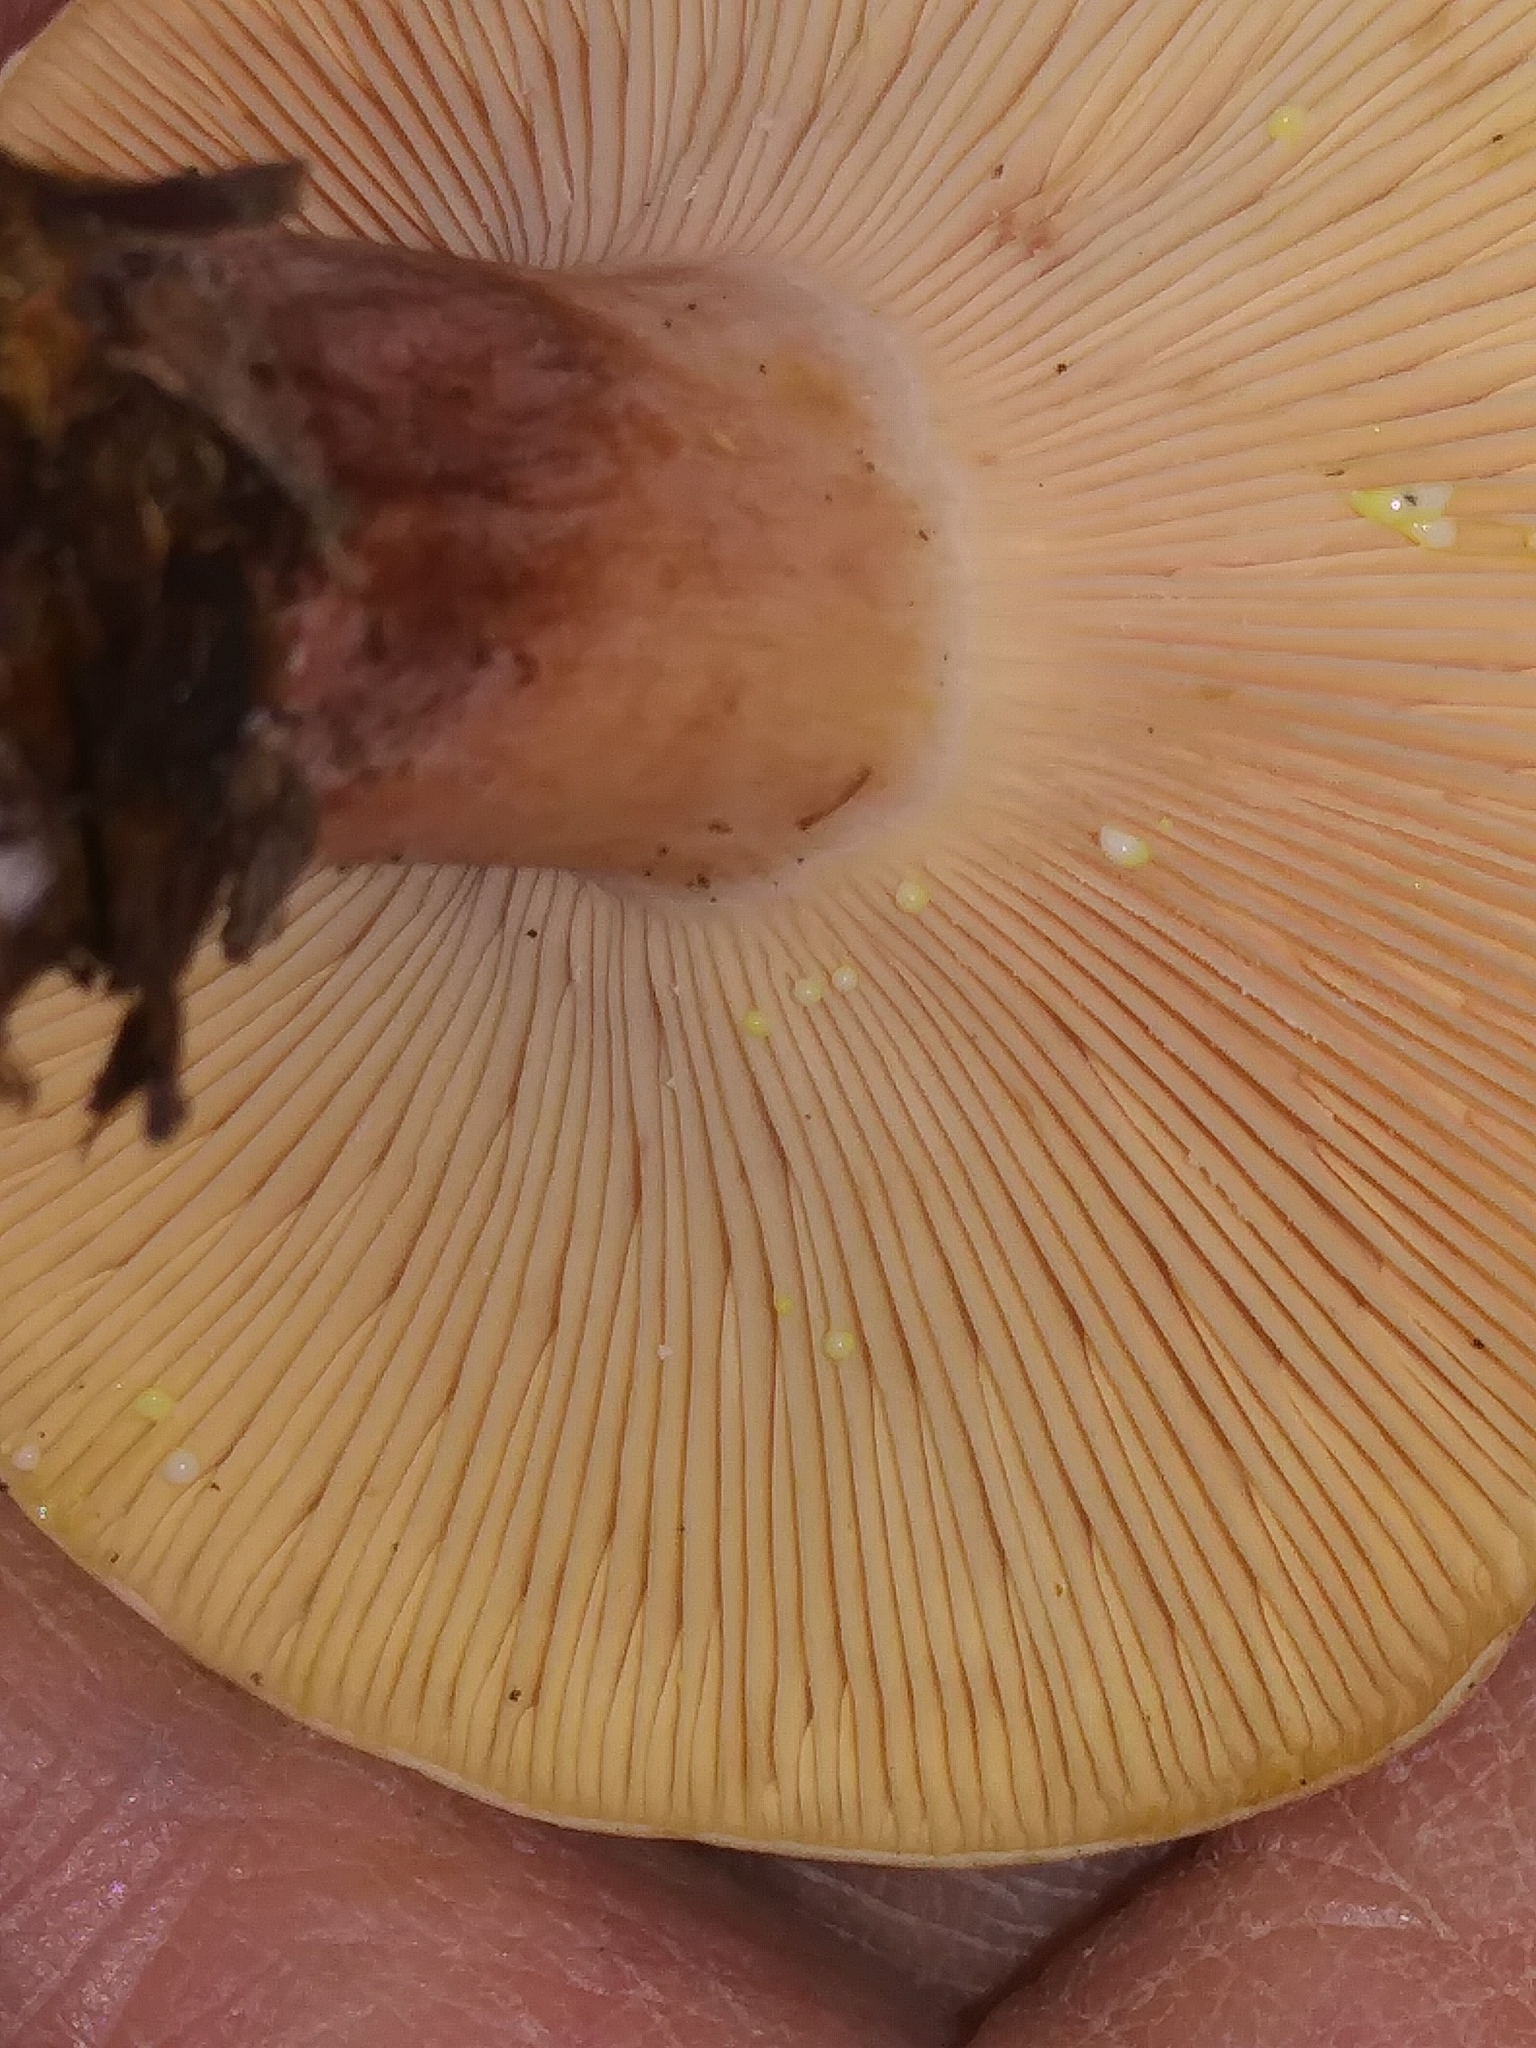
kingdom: Fungi
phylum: Basidiomycota
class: Agaricomycetes
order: Russulales
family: Russulaceae
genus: Lactarius
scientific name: Lactarius chrysorrheus
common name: Yellowdrop milkcap
